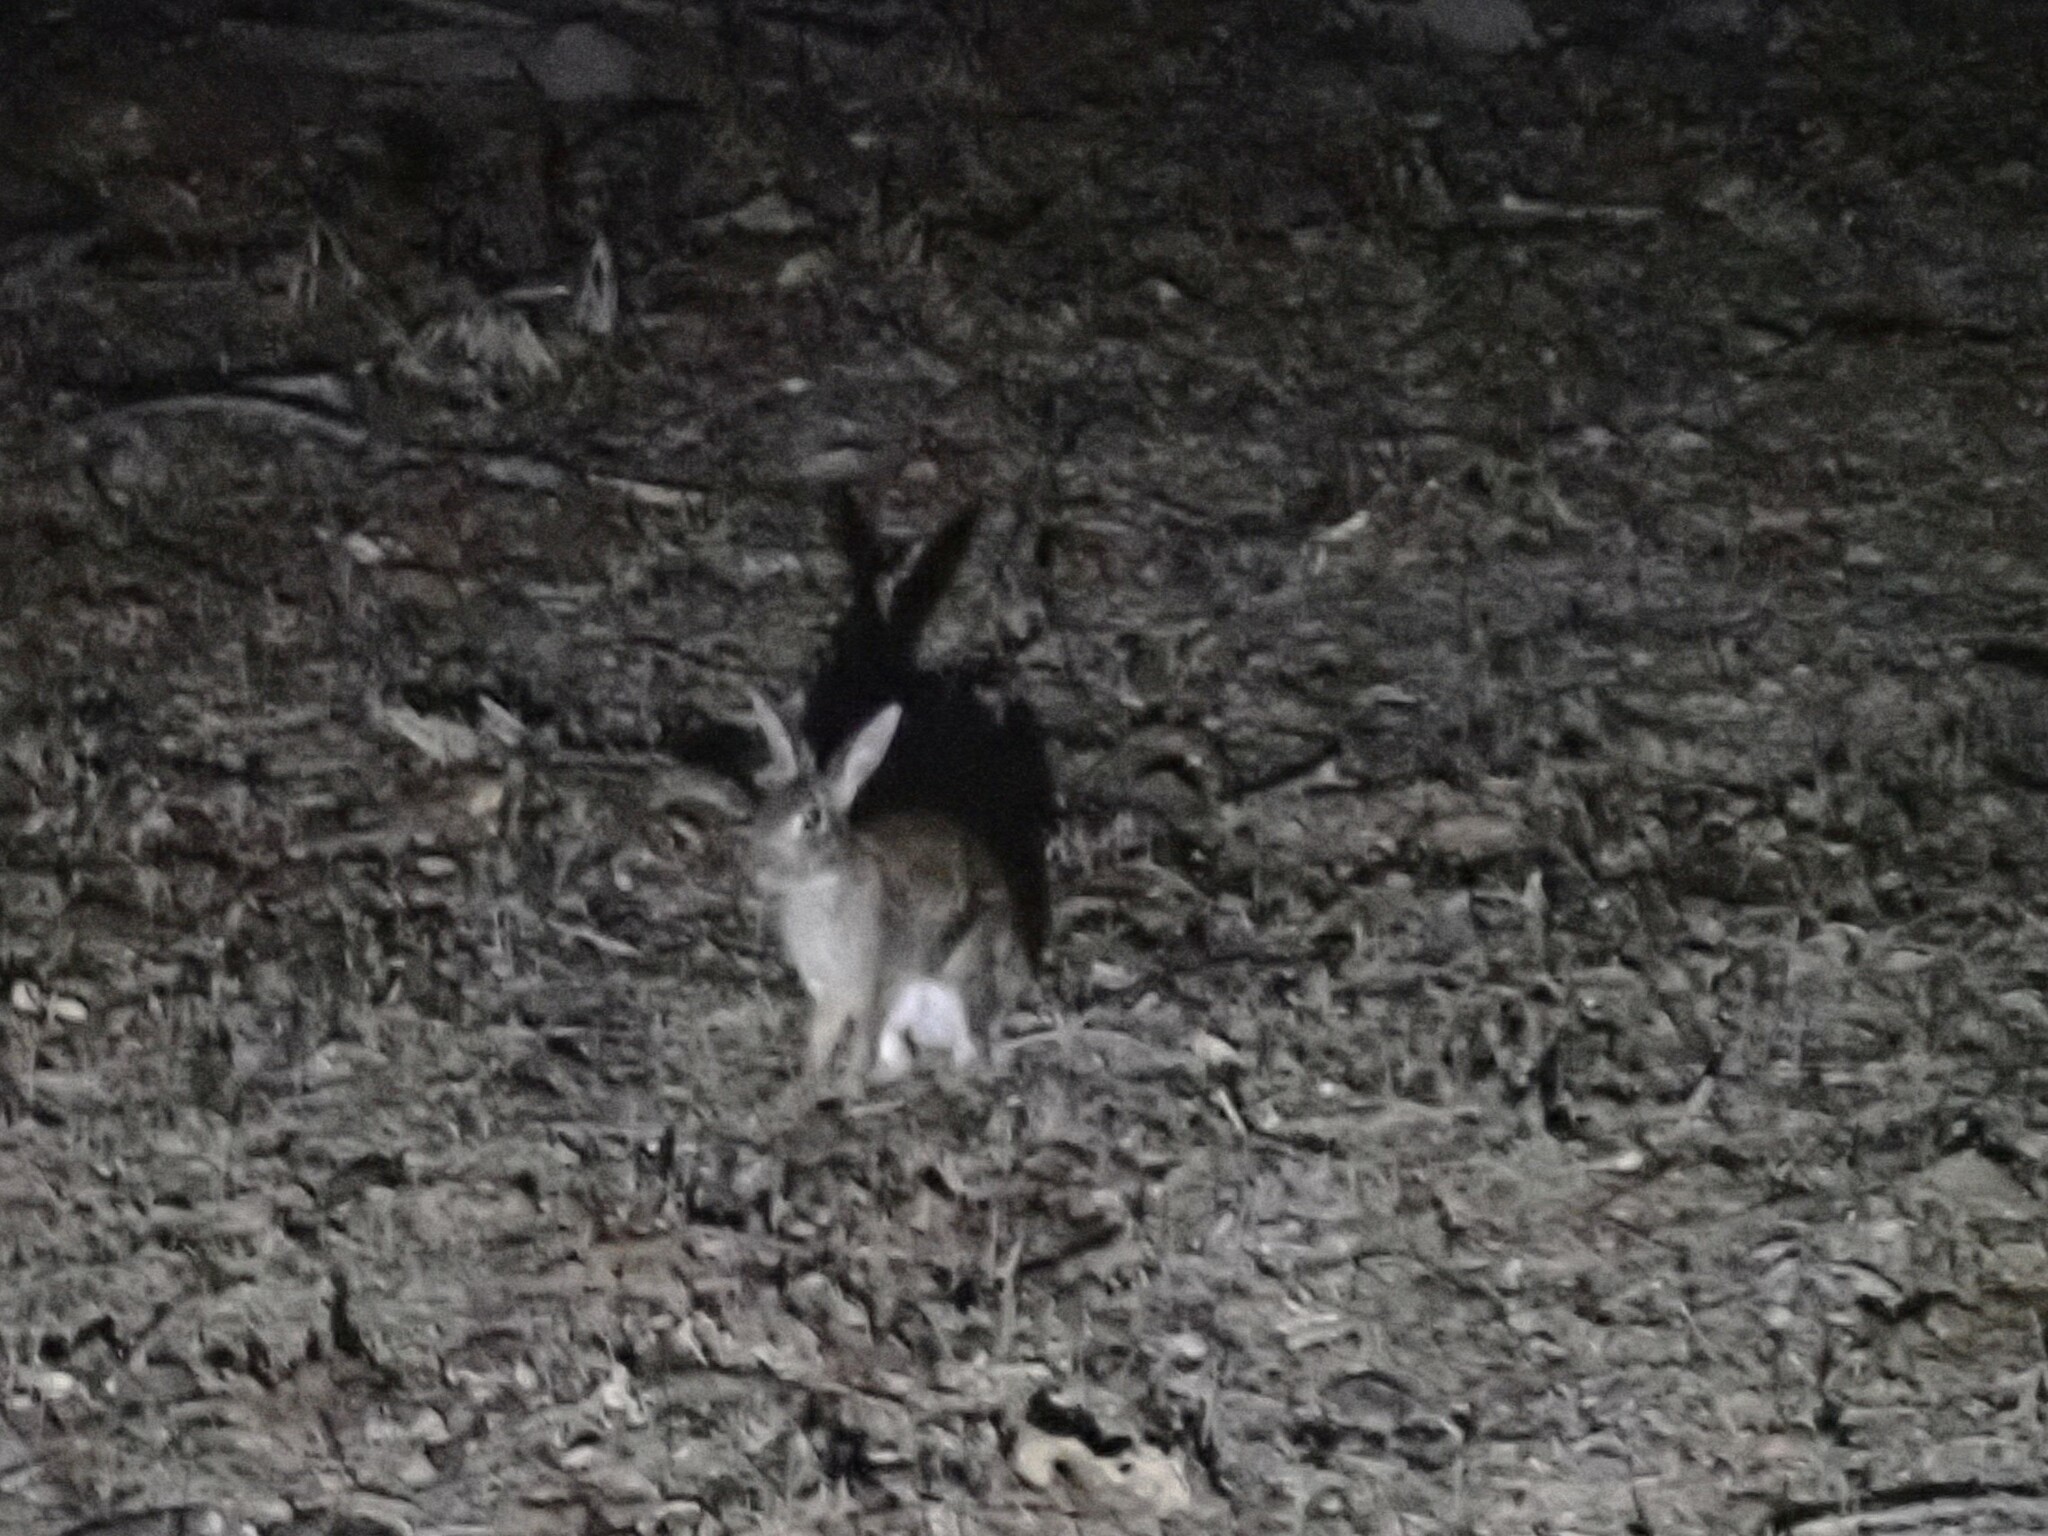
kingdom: Animalia
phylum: Chordata
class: Mammalia
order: Lagomorpha
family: Leporidae
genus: Sylvilagus
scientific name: Sylvilagus floridanus
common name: Eastern cottontail
